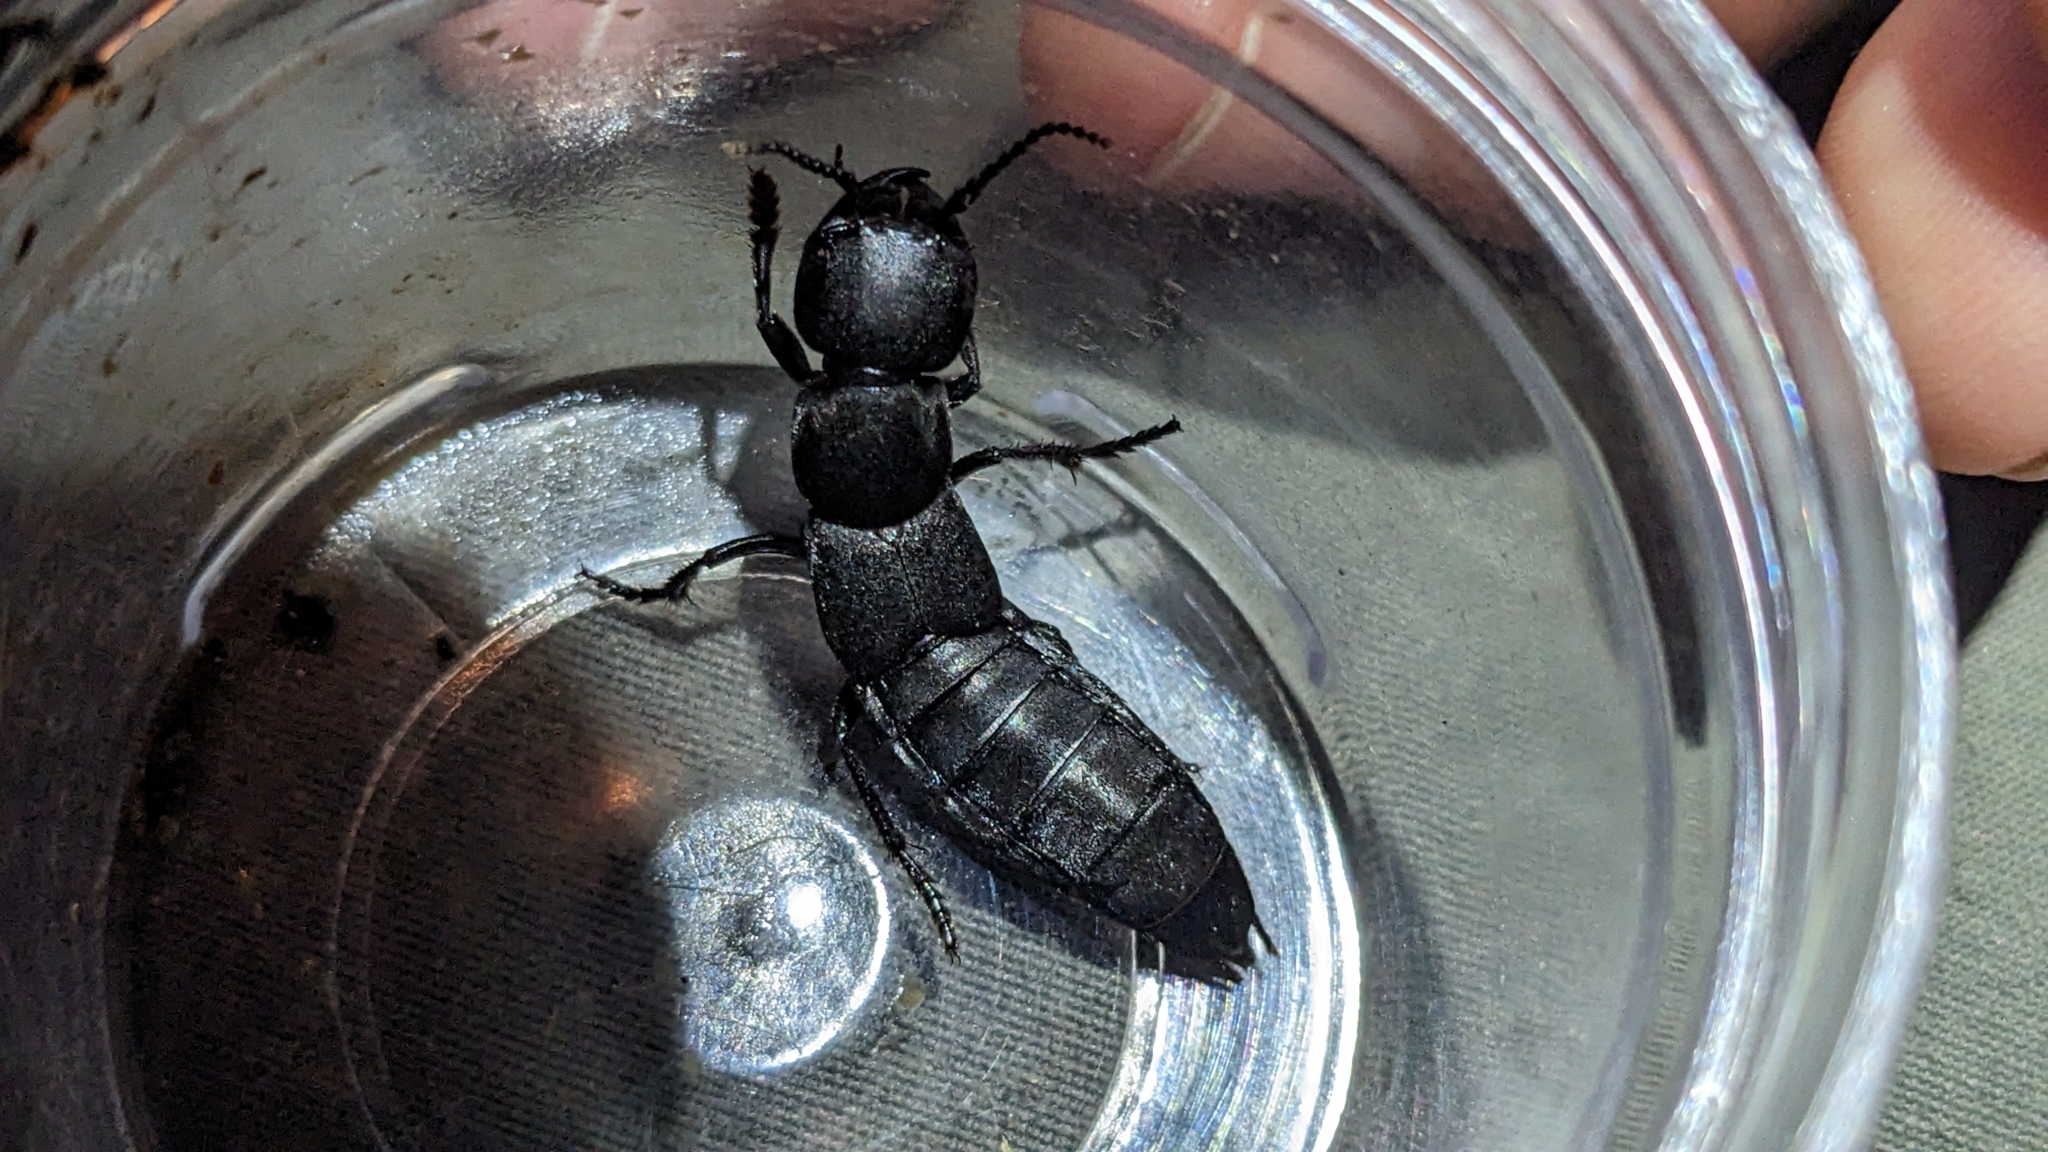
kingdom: Animalia
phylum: Arthropoda
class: Insecta
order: Coleoptera
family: Staphylinidae
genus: Ocypus
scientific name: Ocypus olens
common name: Devil's coach-horse
